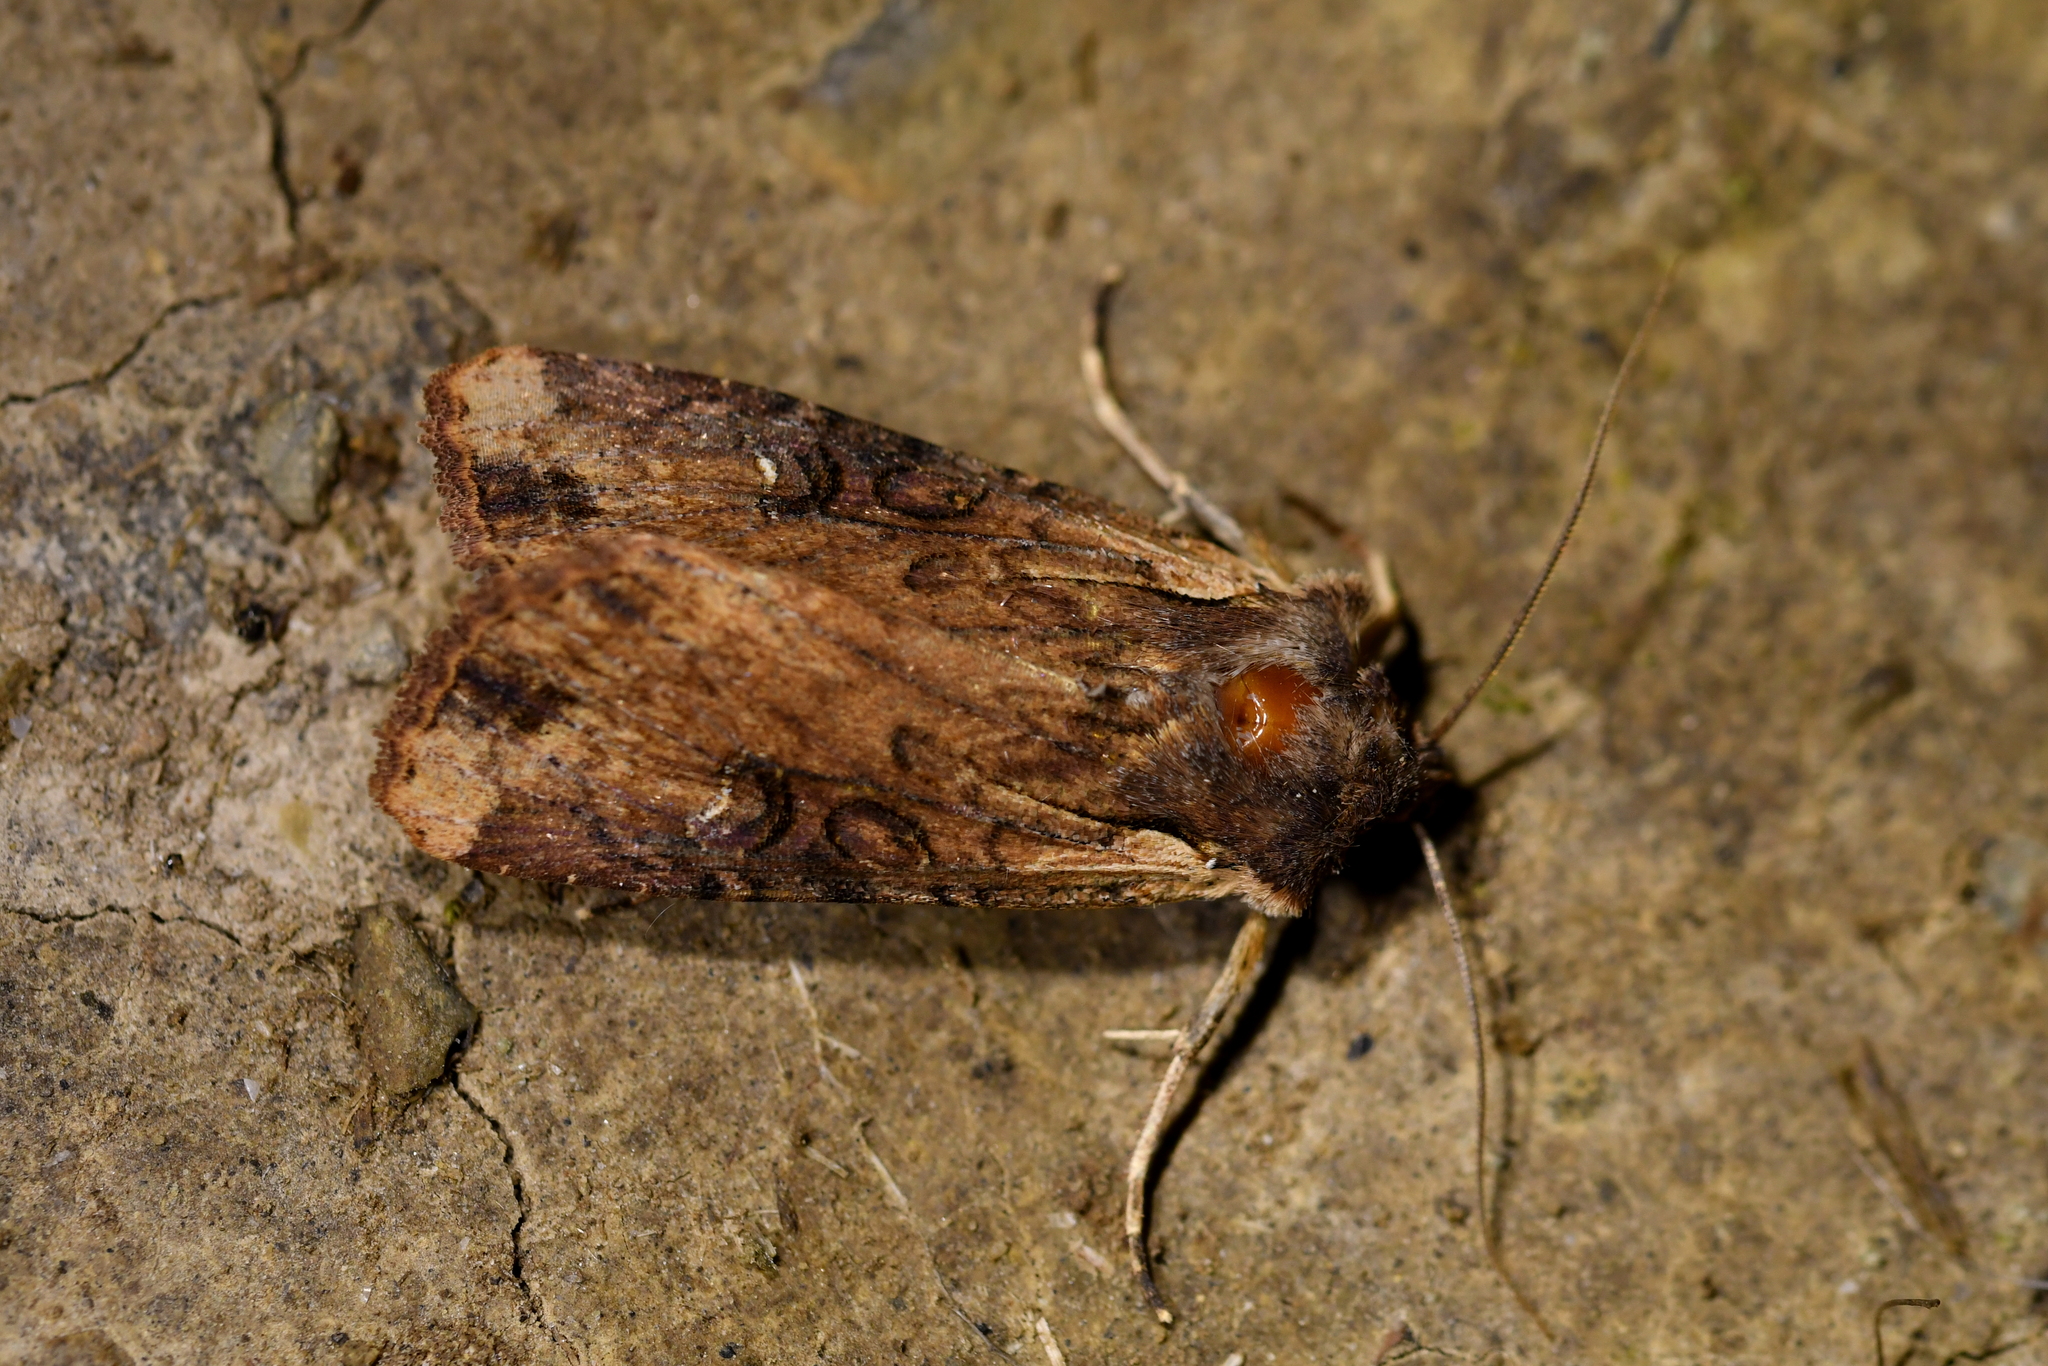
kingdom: Animalia
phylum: Arthropoda
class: Insecta
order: Lepidoptera
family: Noctuidae
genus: Ichneutica
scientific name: Ichneutica omoplaca
